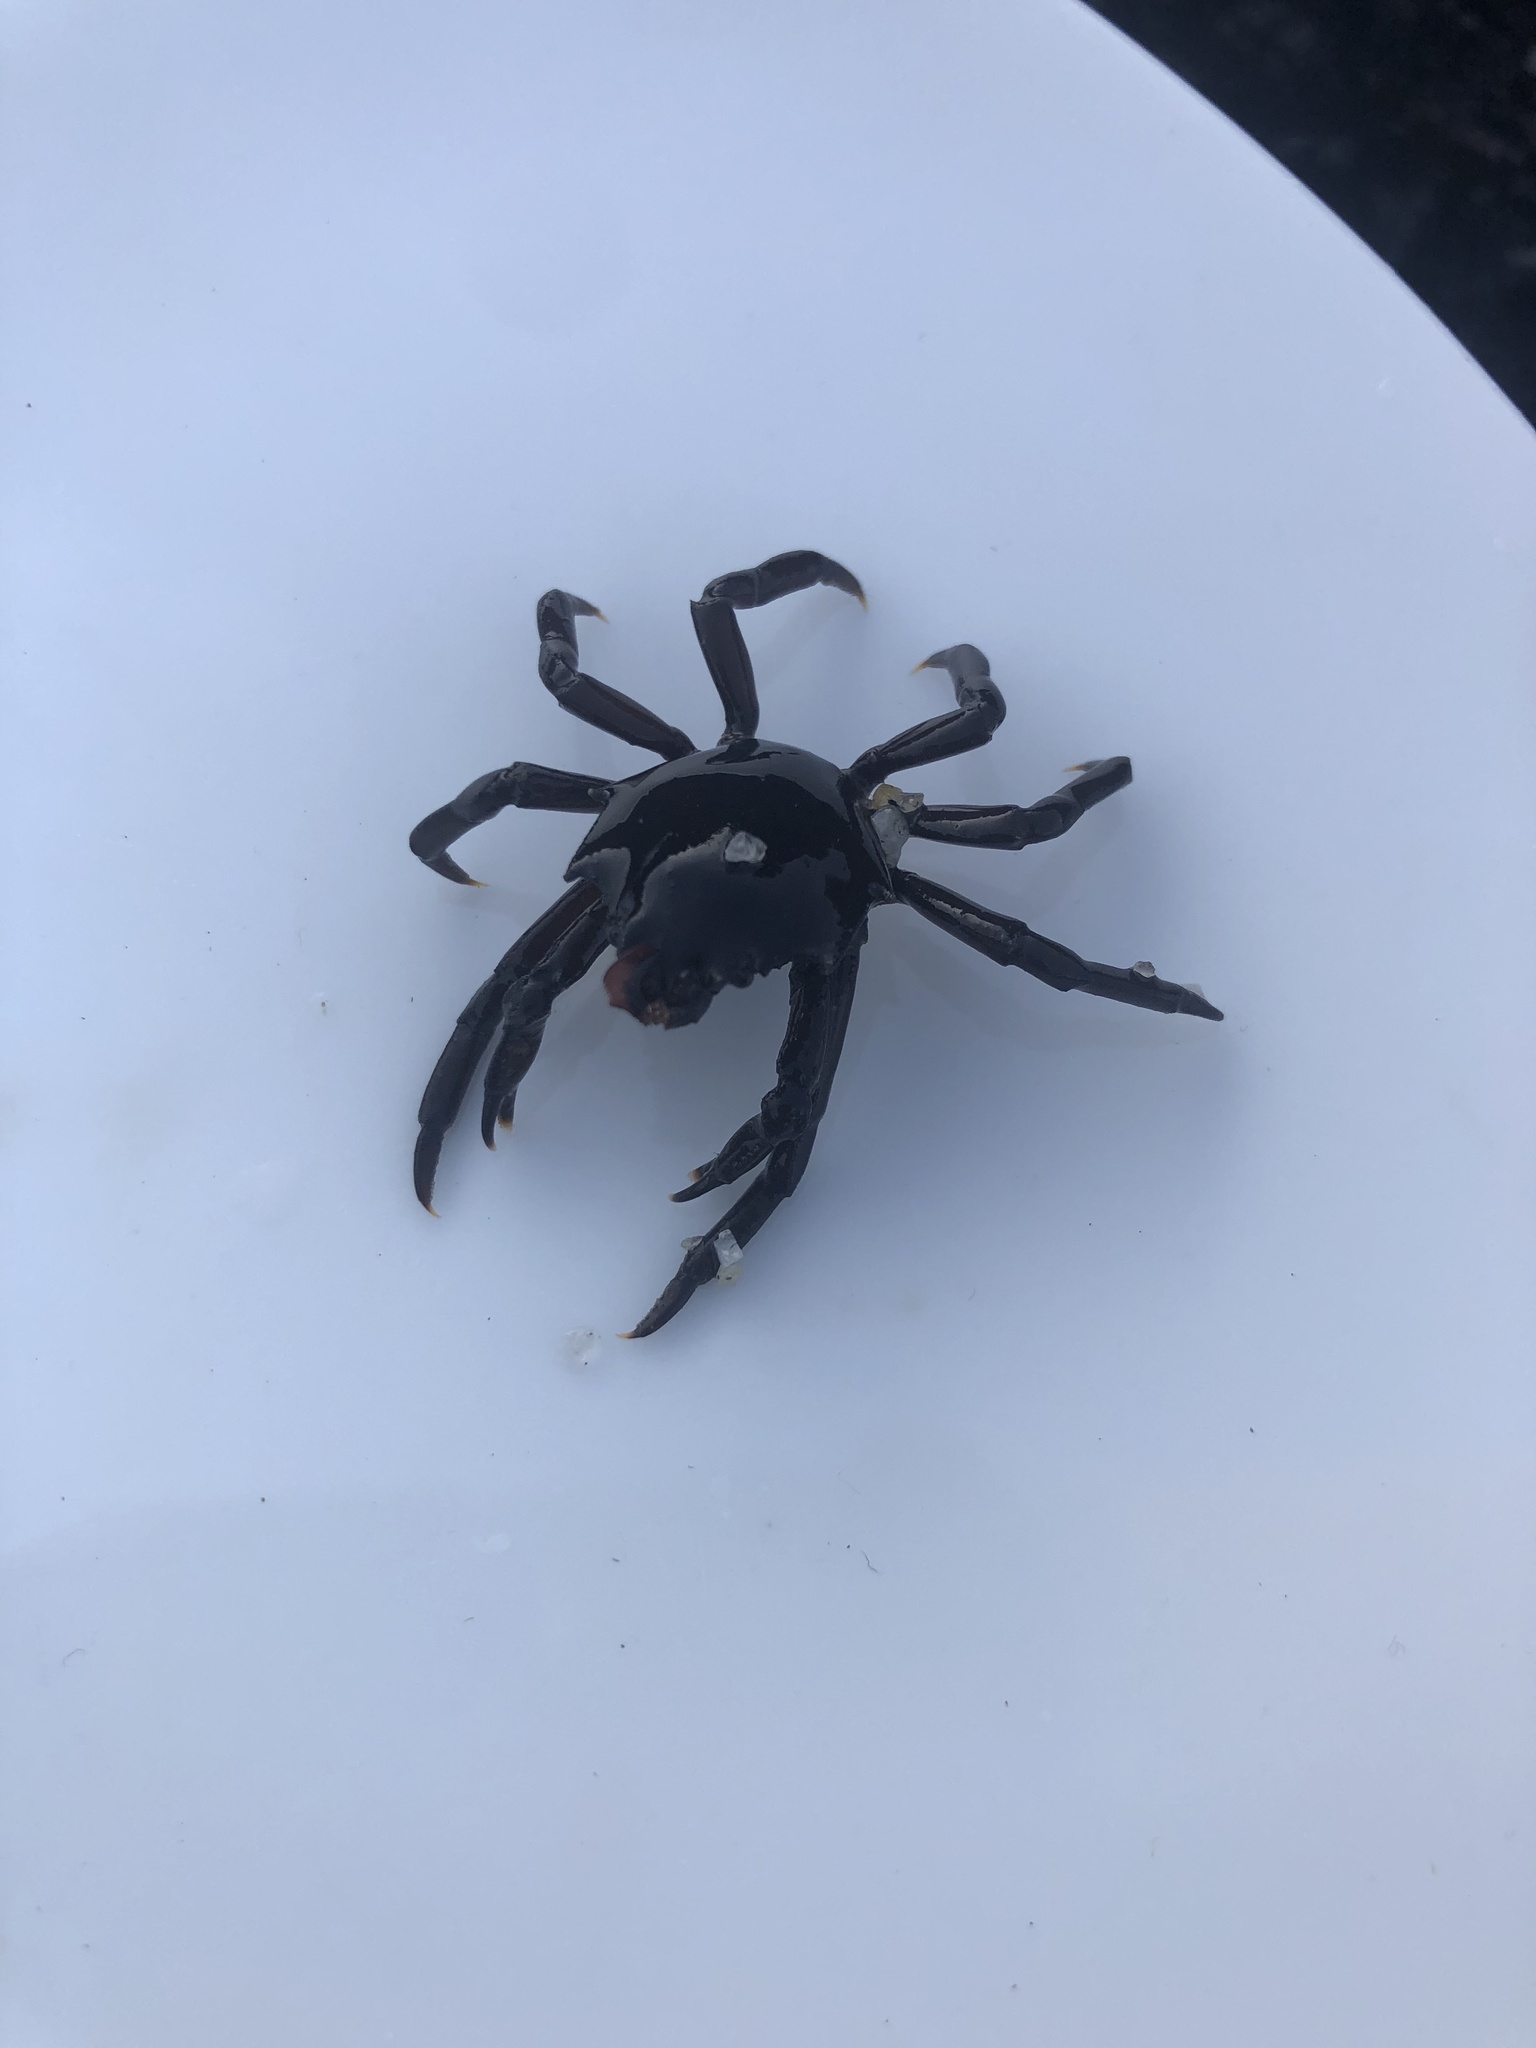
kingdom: Animalia
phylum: Arthropoda
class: Malacostraca
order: Decapoda
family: Epialtidae
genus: Pugettia
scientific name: Pugettia producta
